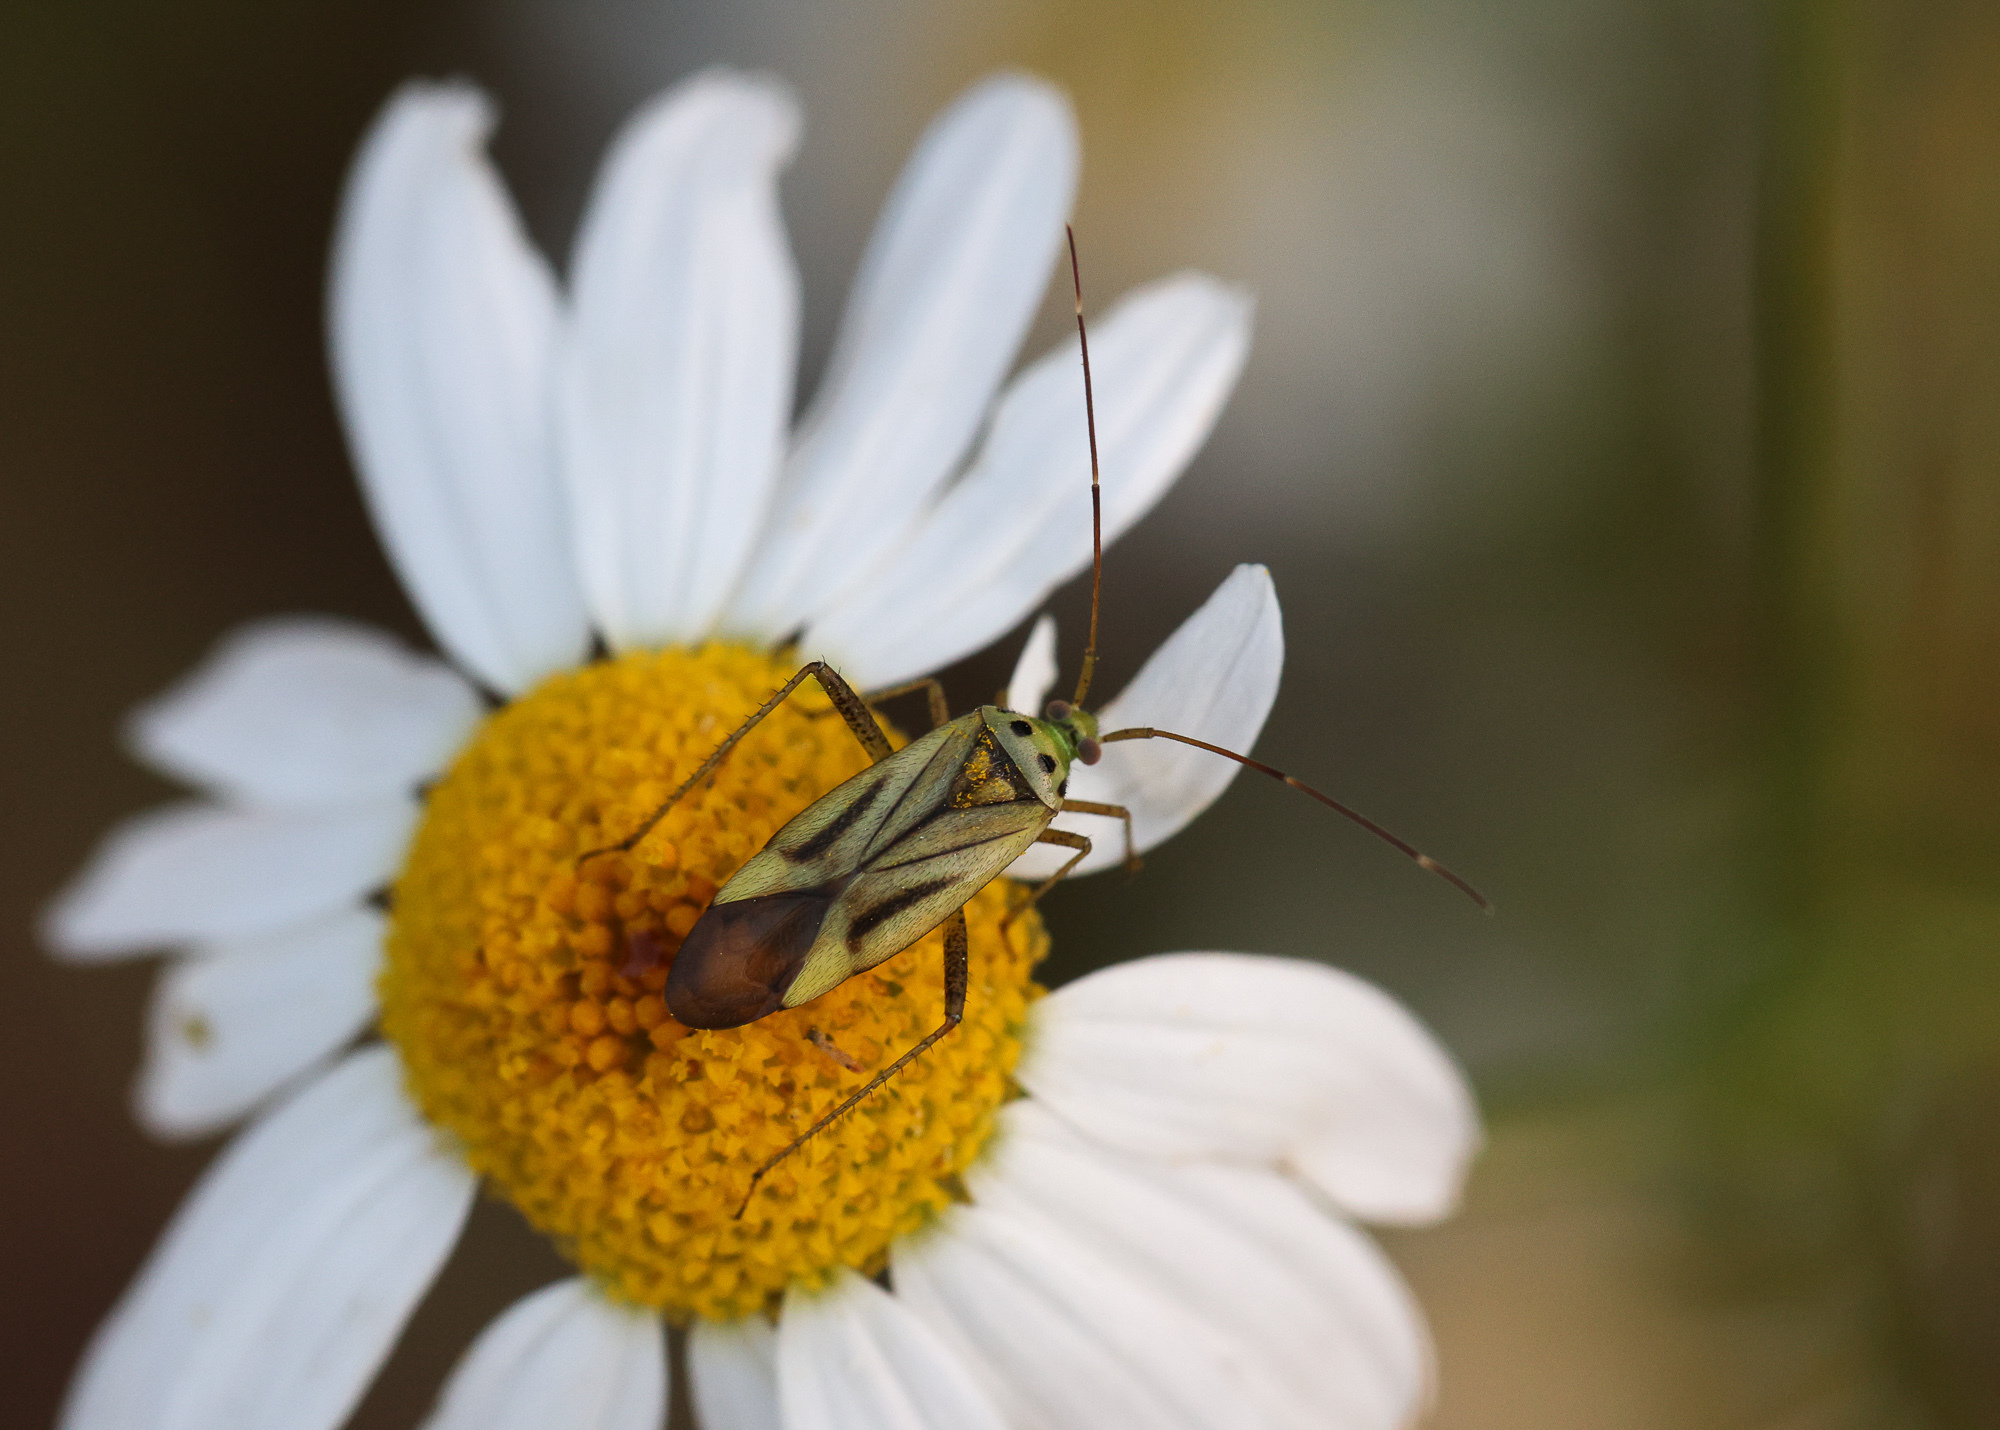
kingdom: Animalia
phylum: Arthropoda
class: Insecta
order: Hemiptera
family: Miridae
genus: Adelphocoris
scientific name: Adelphocoris quadripunctatus
